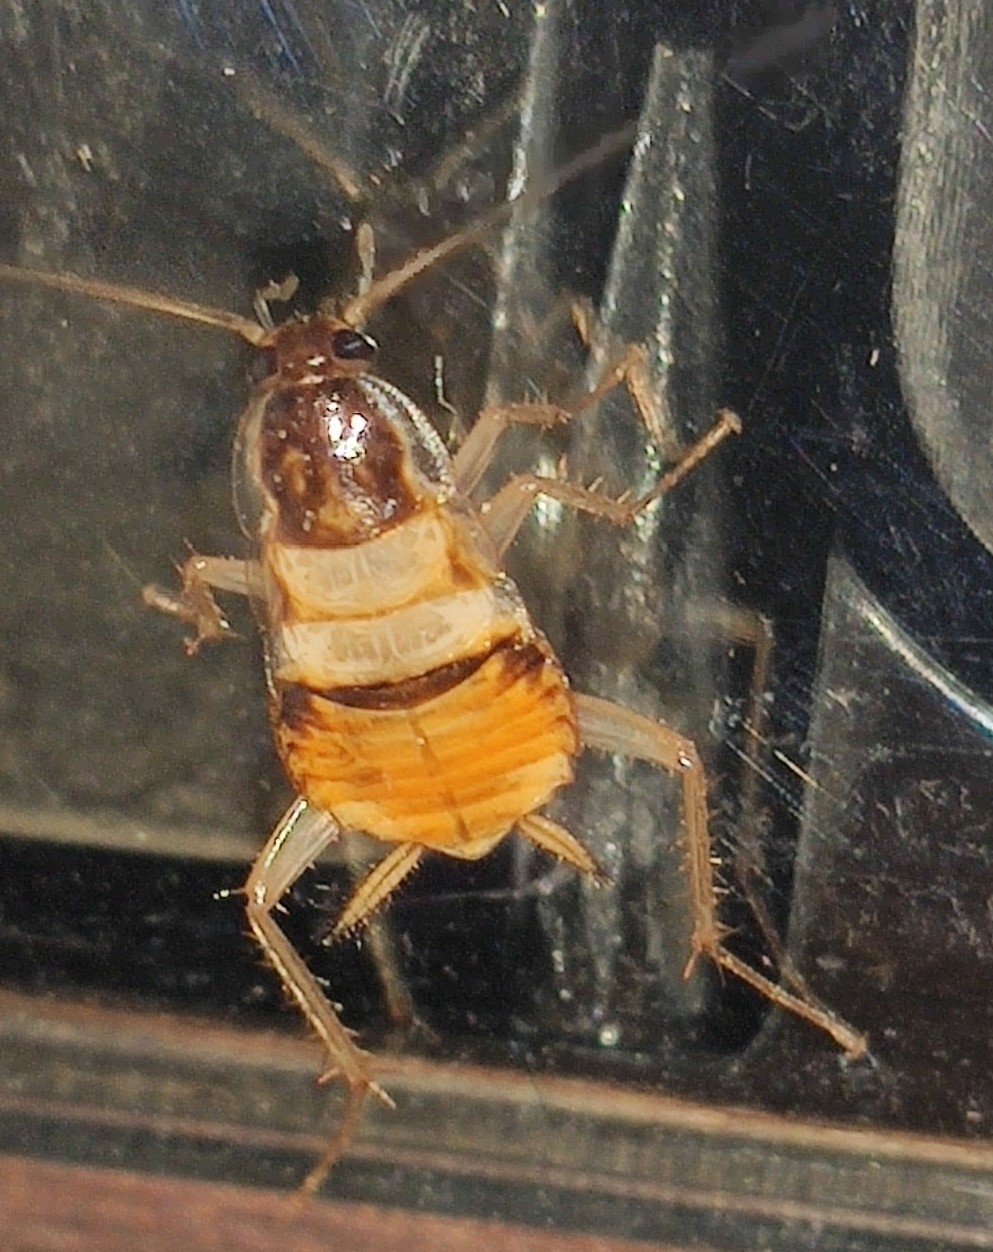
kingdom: Animalia
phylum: Arthropoda
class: Insecta
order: Blattodea
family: Ectobiidae
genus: Supella
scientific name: Supella longipalpa
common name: Brown-banded cockroach
